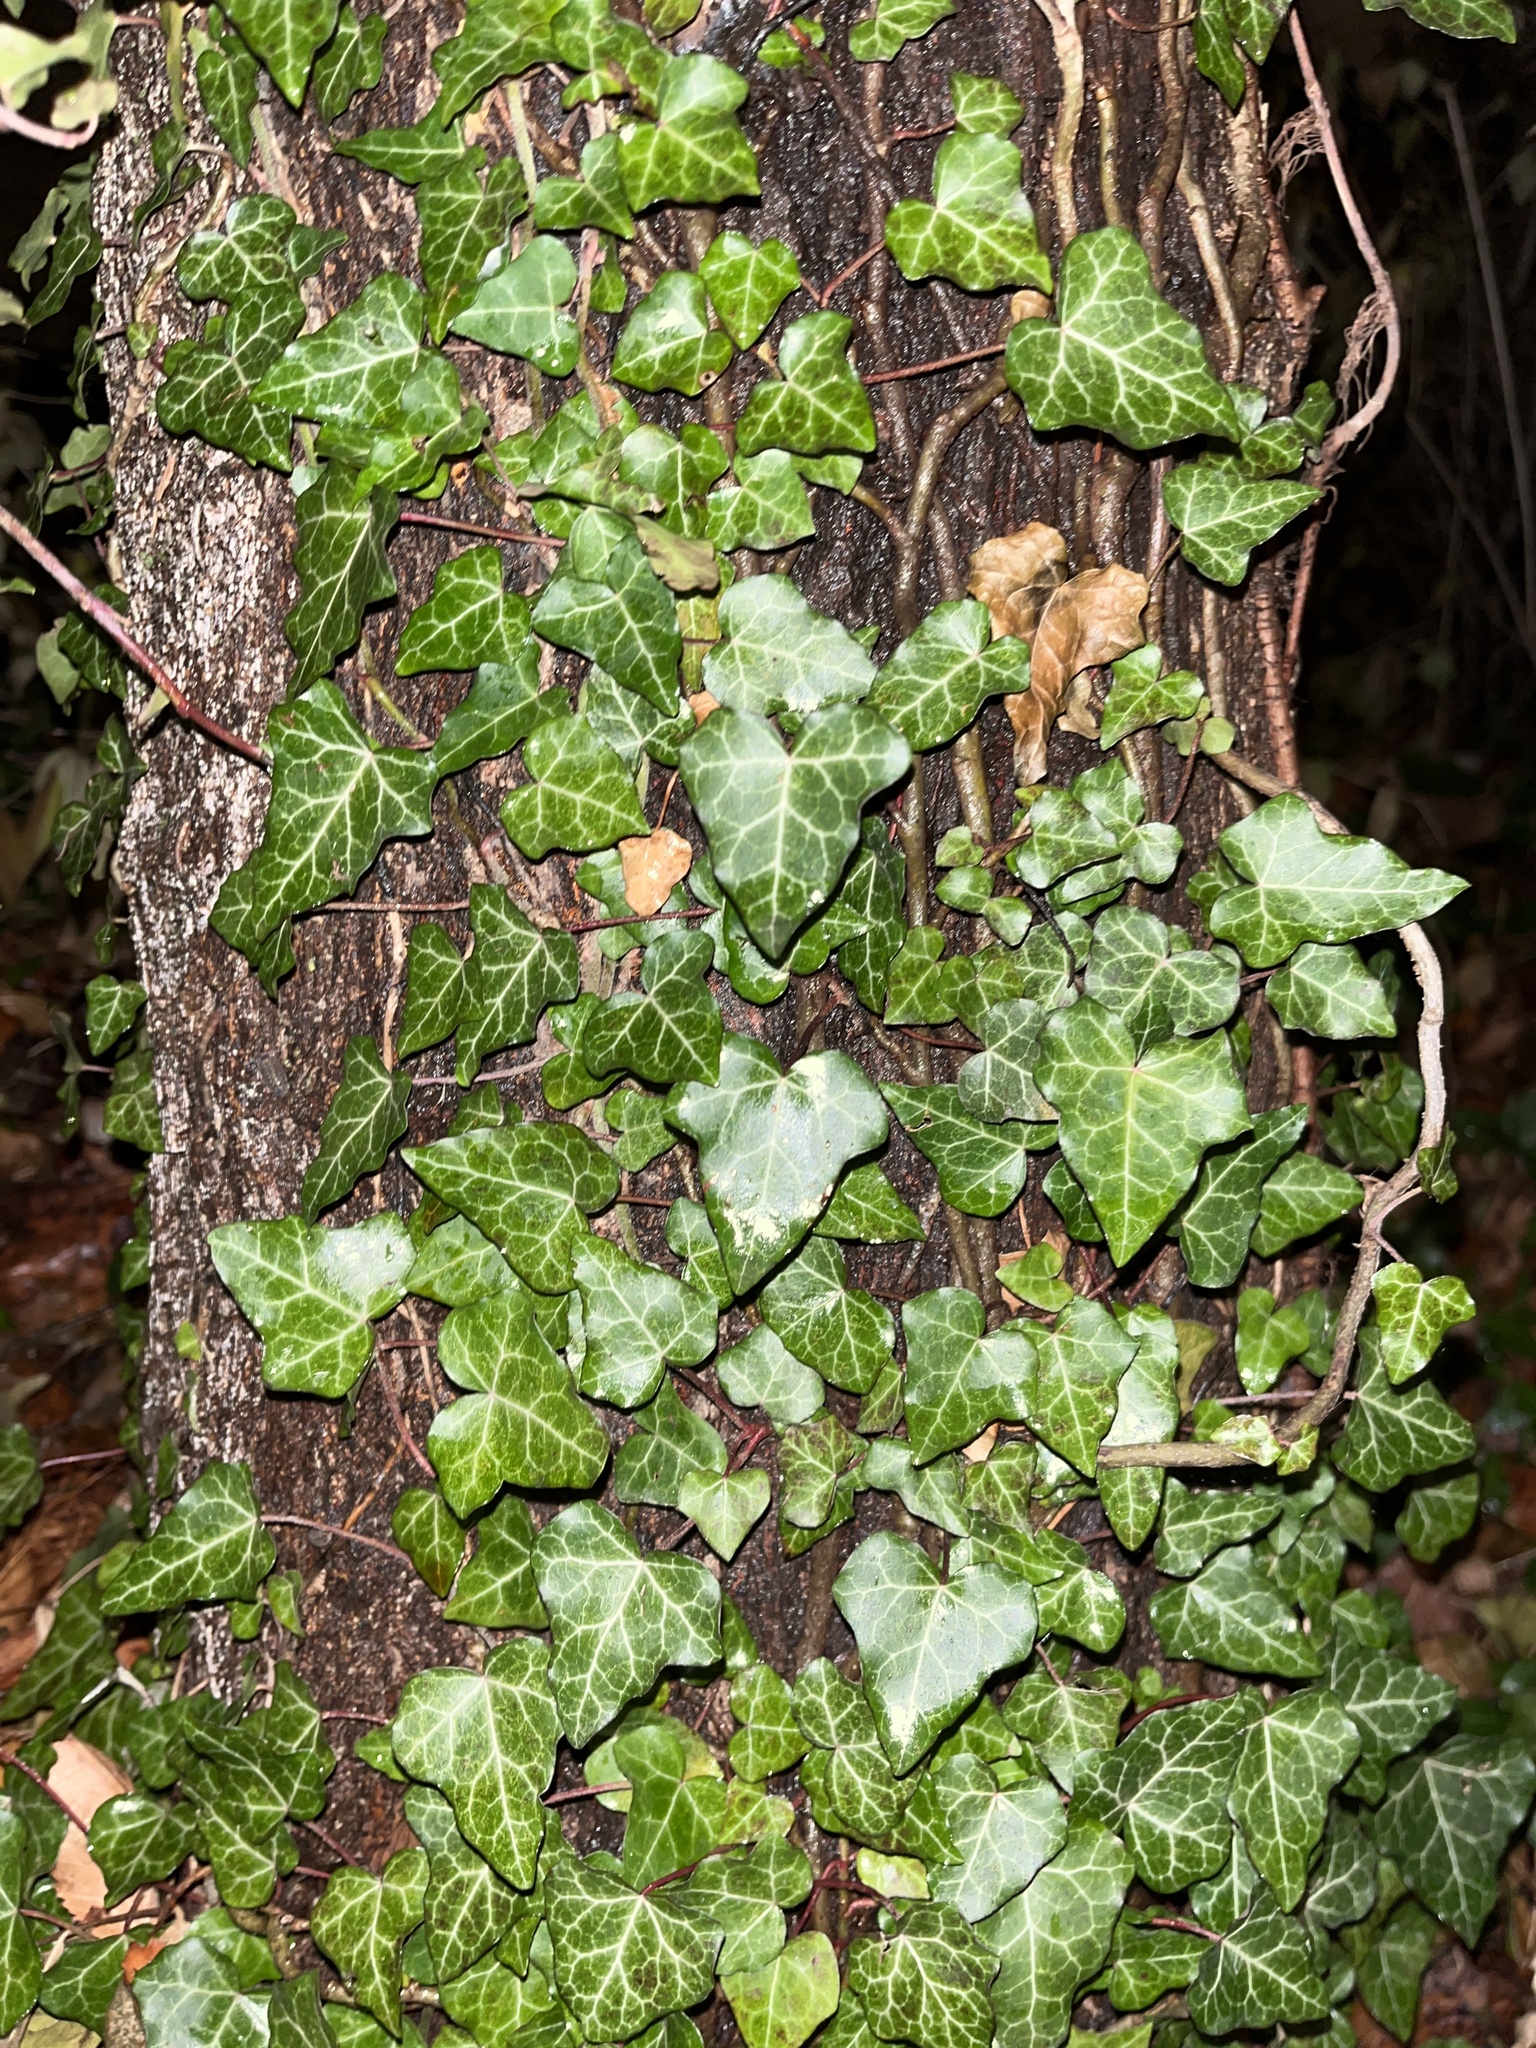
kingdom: Plantae
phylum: Tracheophyta
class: Magnoliopsida
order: Apiales
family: Araliaceae
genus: Hedera
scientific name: Hedera helix
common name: Ivy
